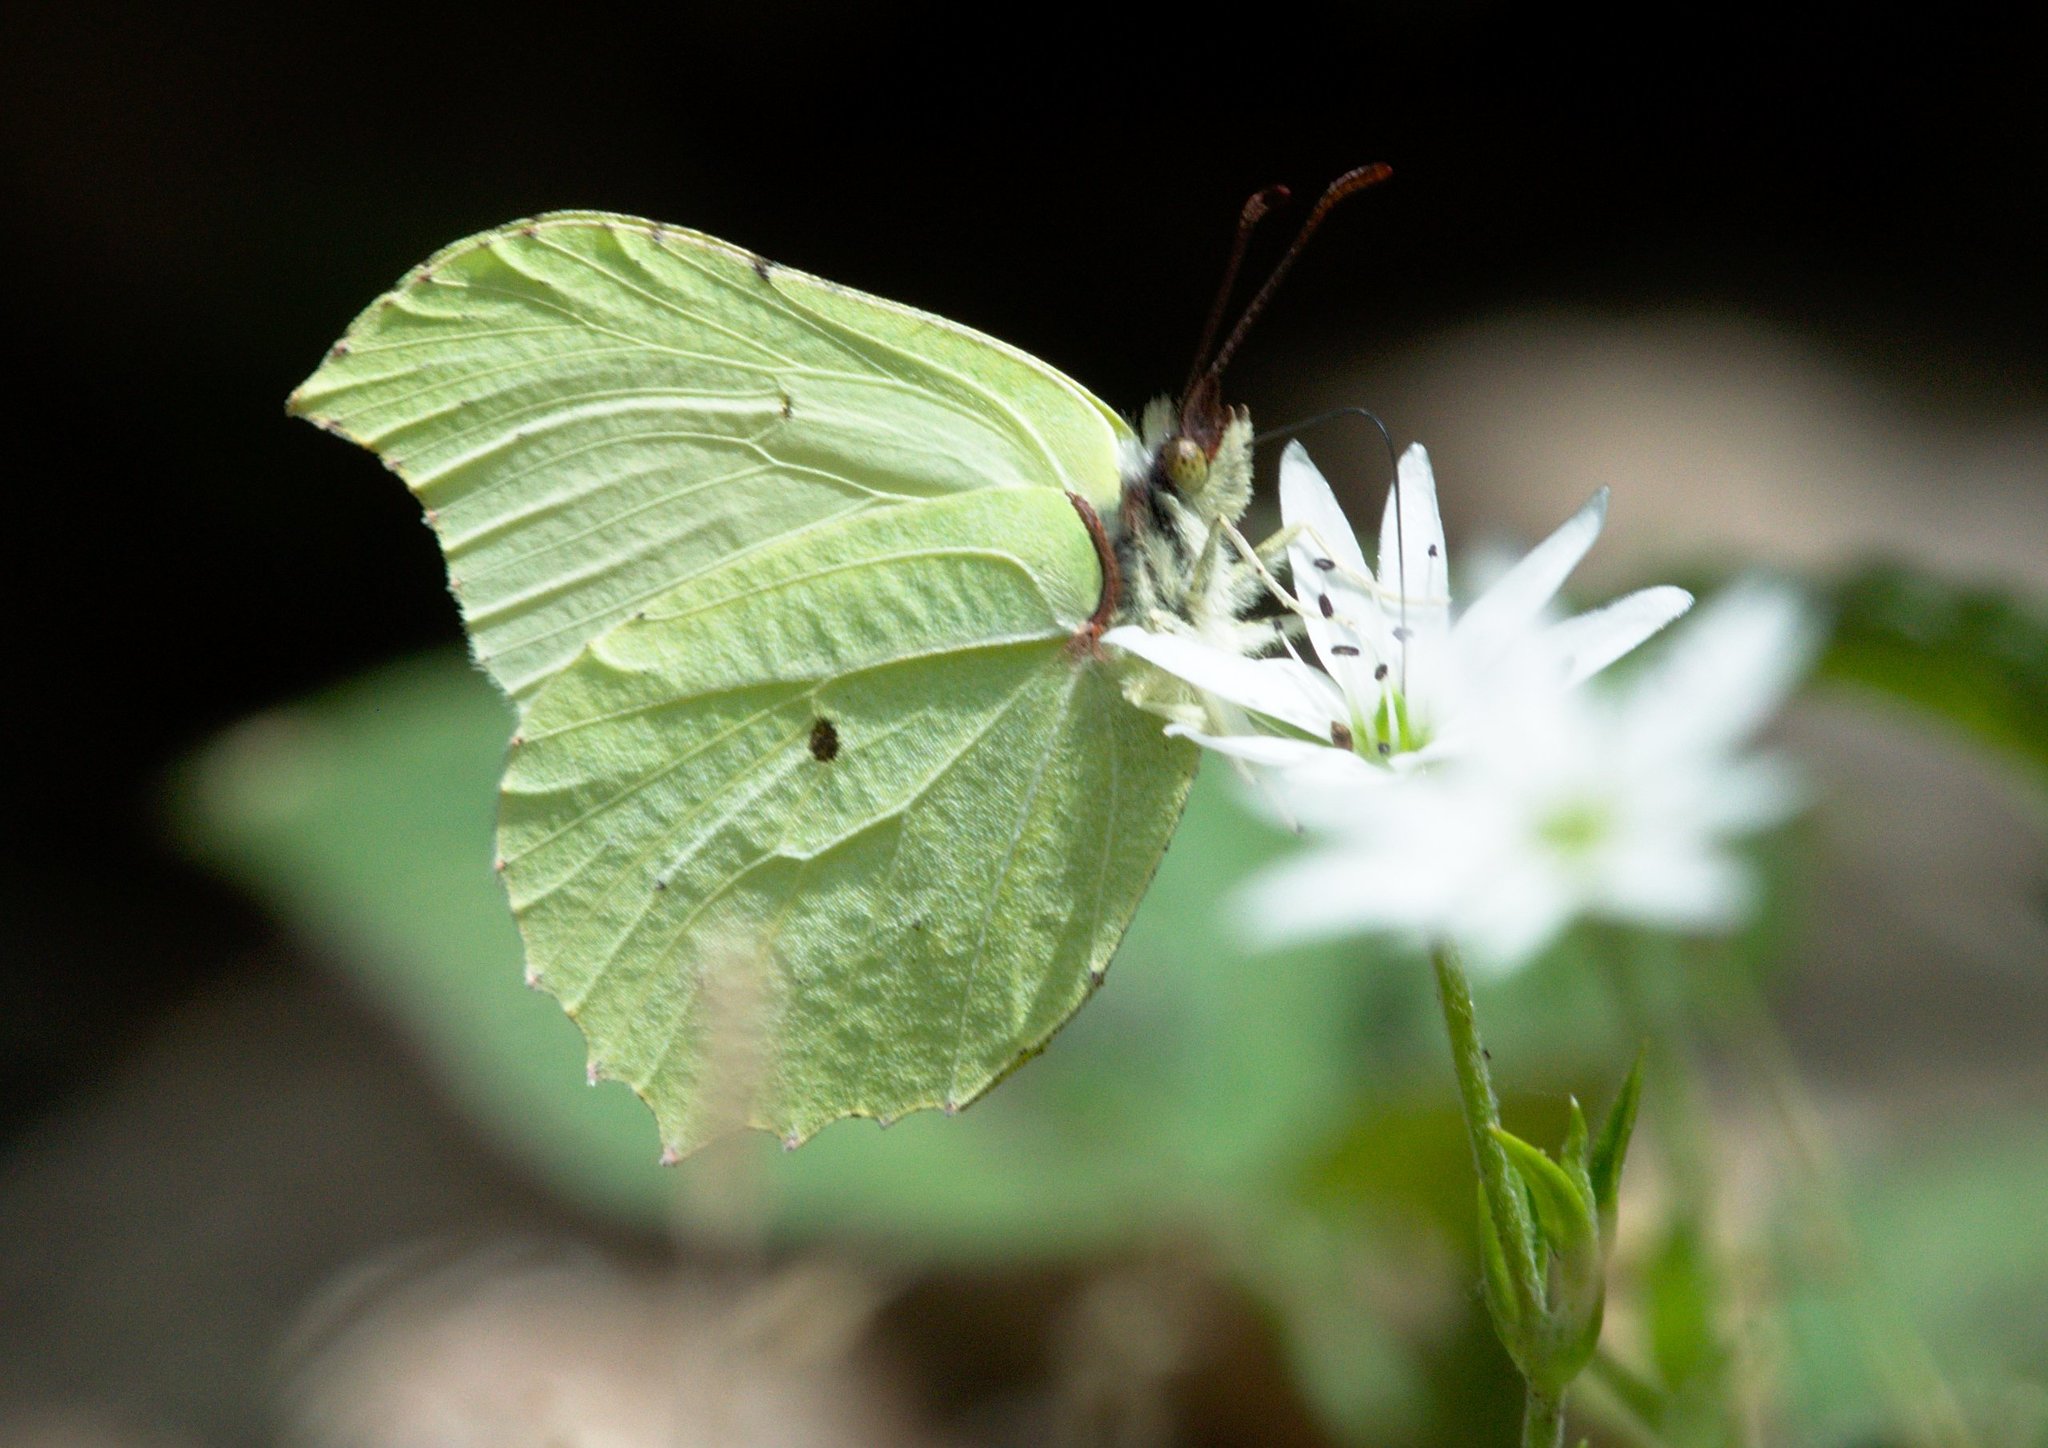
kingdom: Animalia
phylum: Arthropoda
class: Insecta
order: Lepidoptera
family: Pieridae
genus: Gonepteryx
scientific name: Gonepteryx mahaguru
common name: Lesser brimstone
